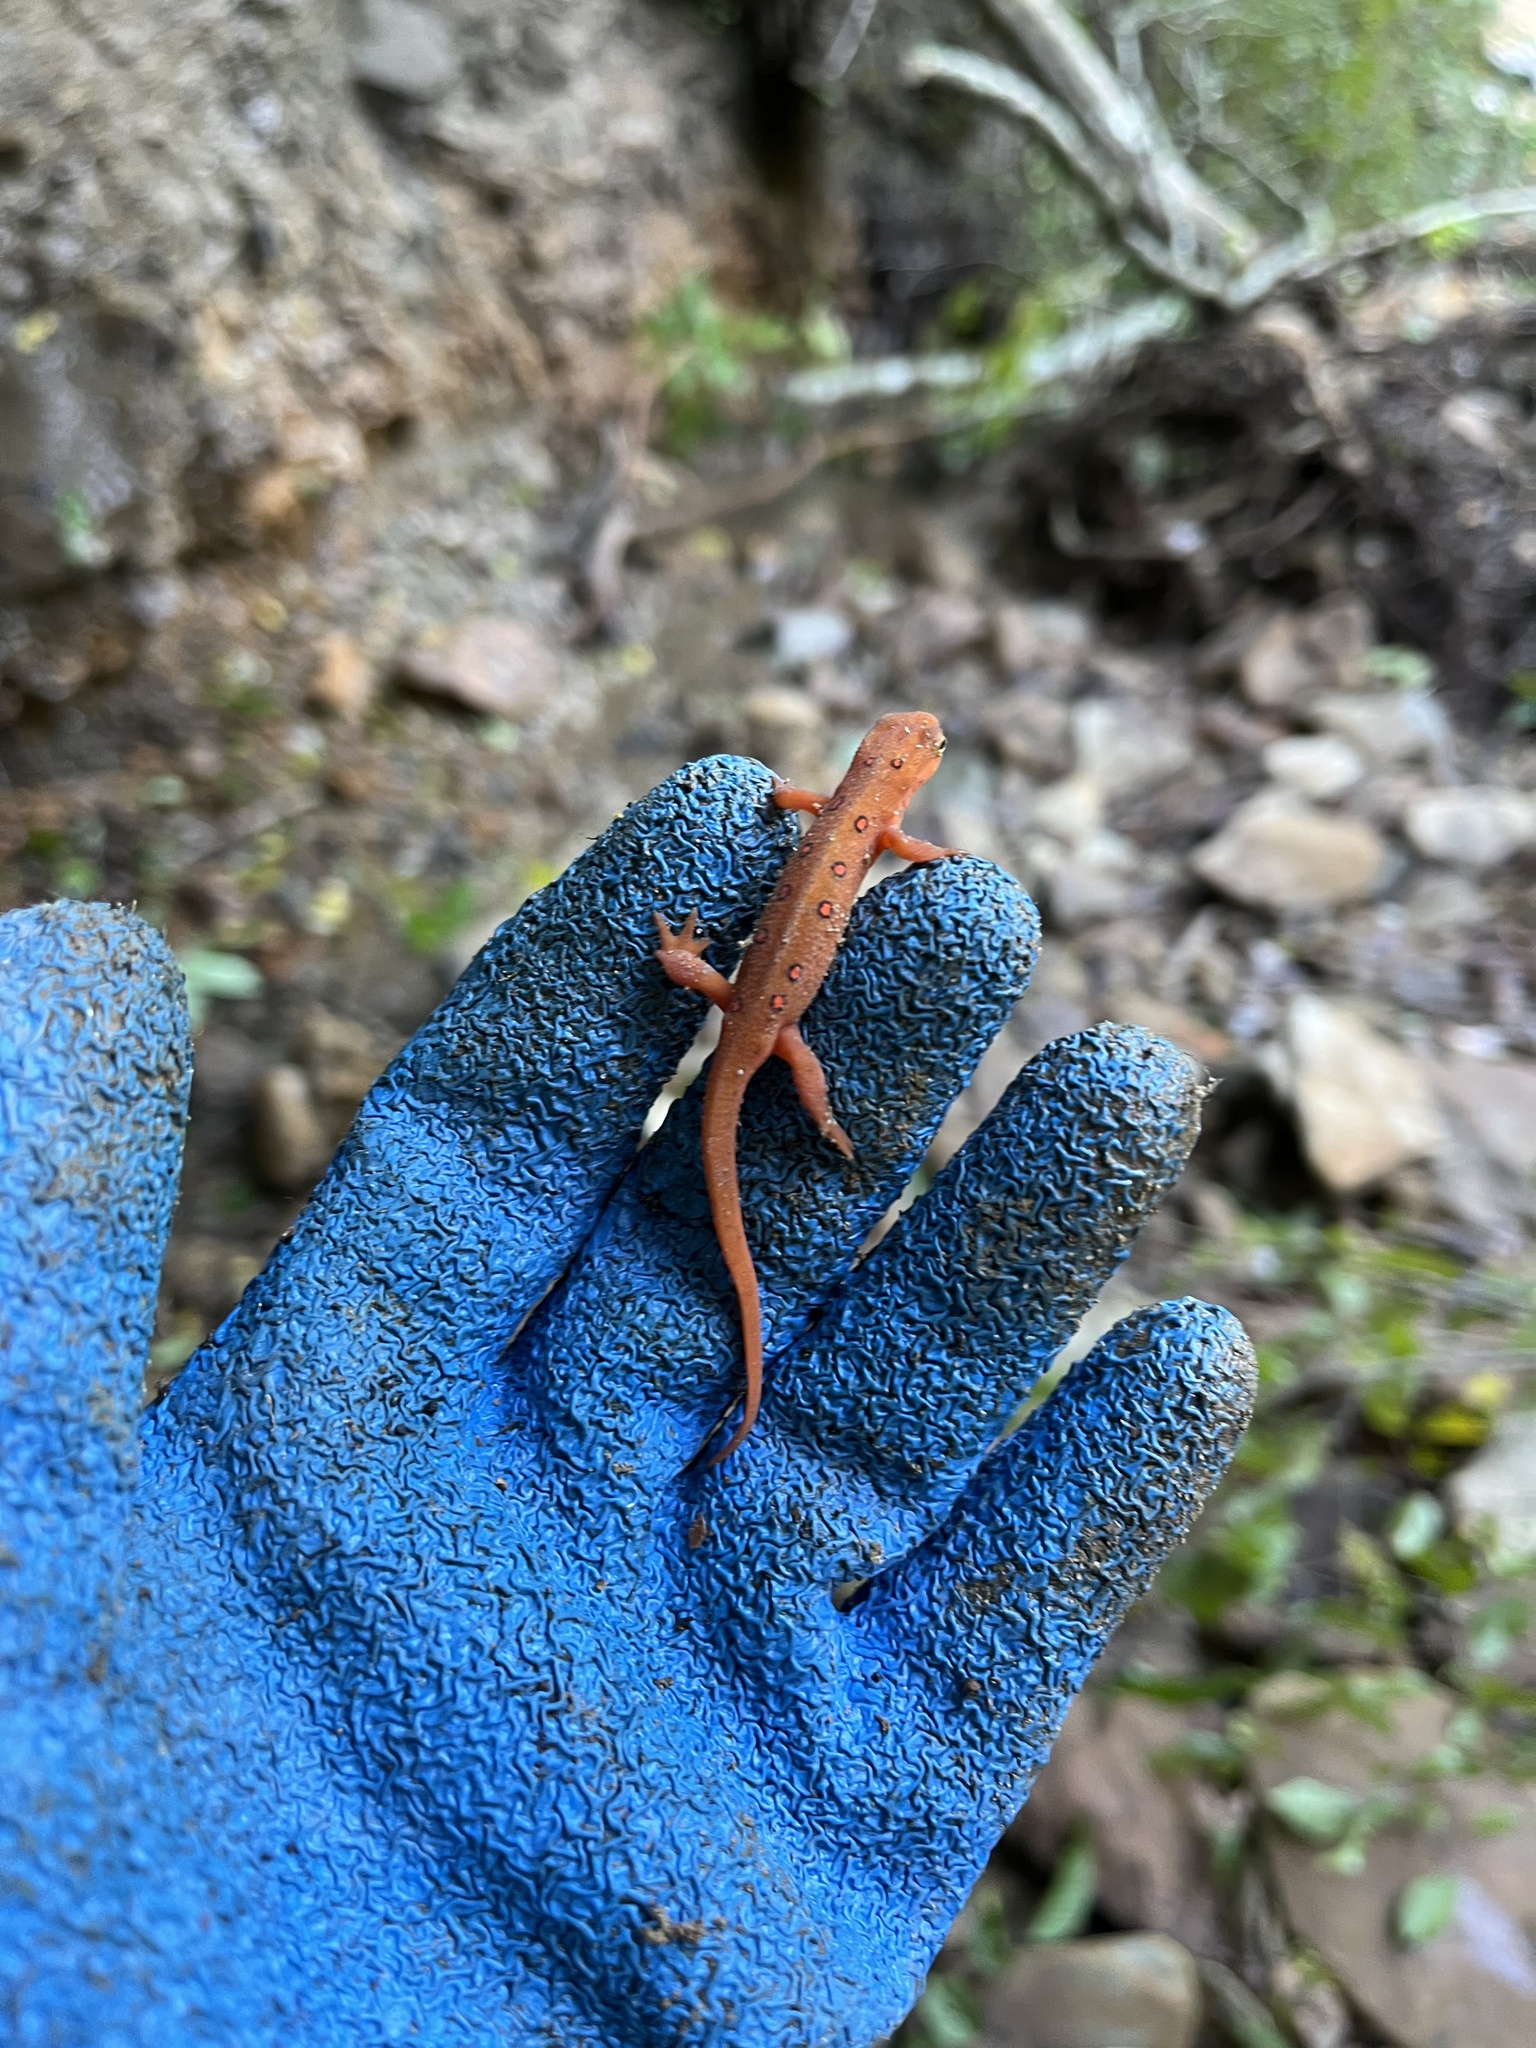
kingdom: Animalia
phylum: Chordata
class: Amphibia
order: Caudata
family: Salamandridae
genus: Notophthalmus
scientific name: Notophthalmus viridescens
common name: Eastern newt
